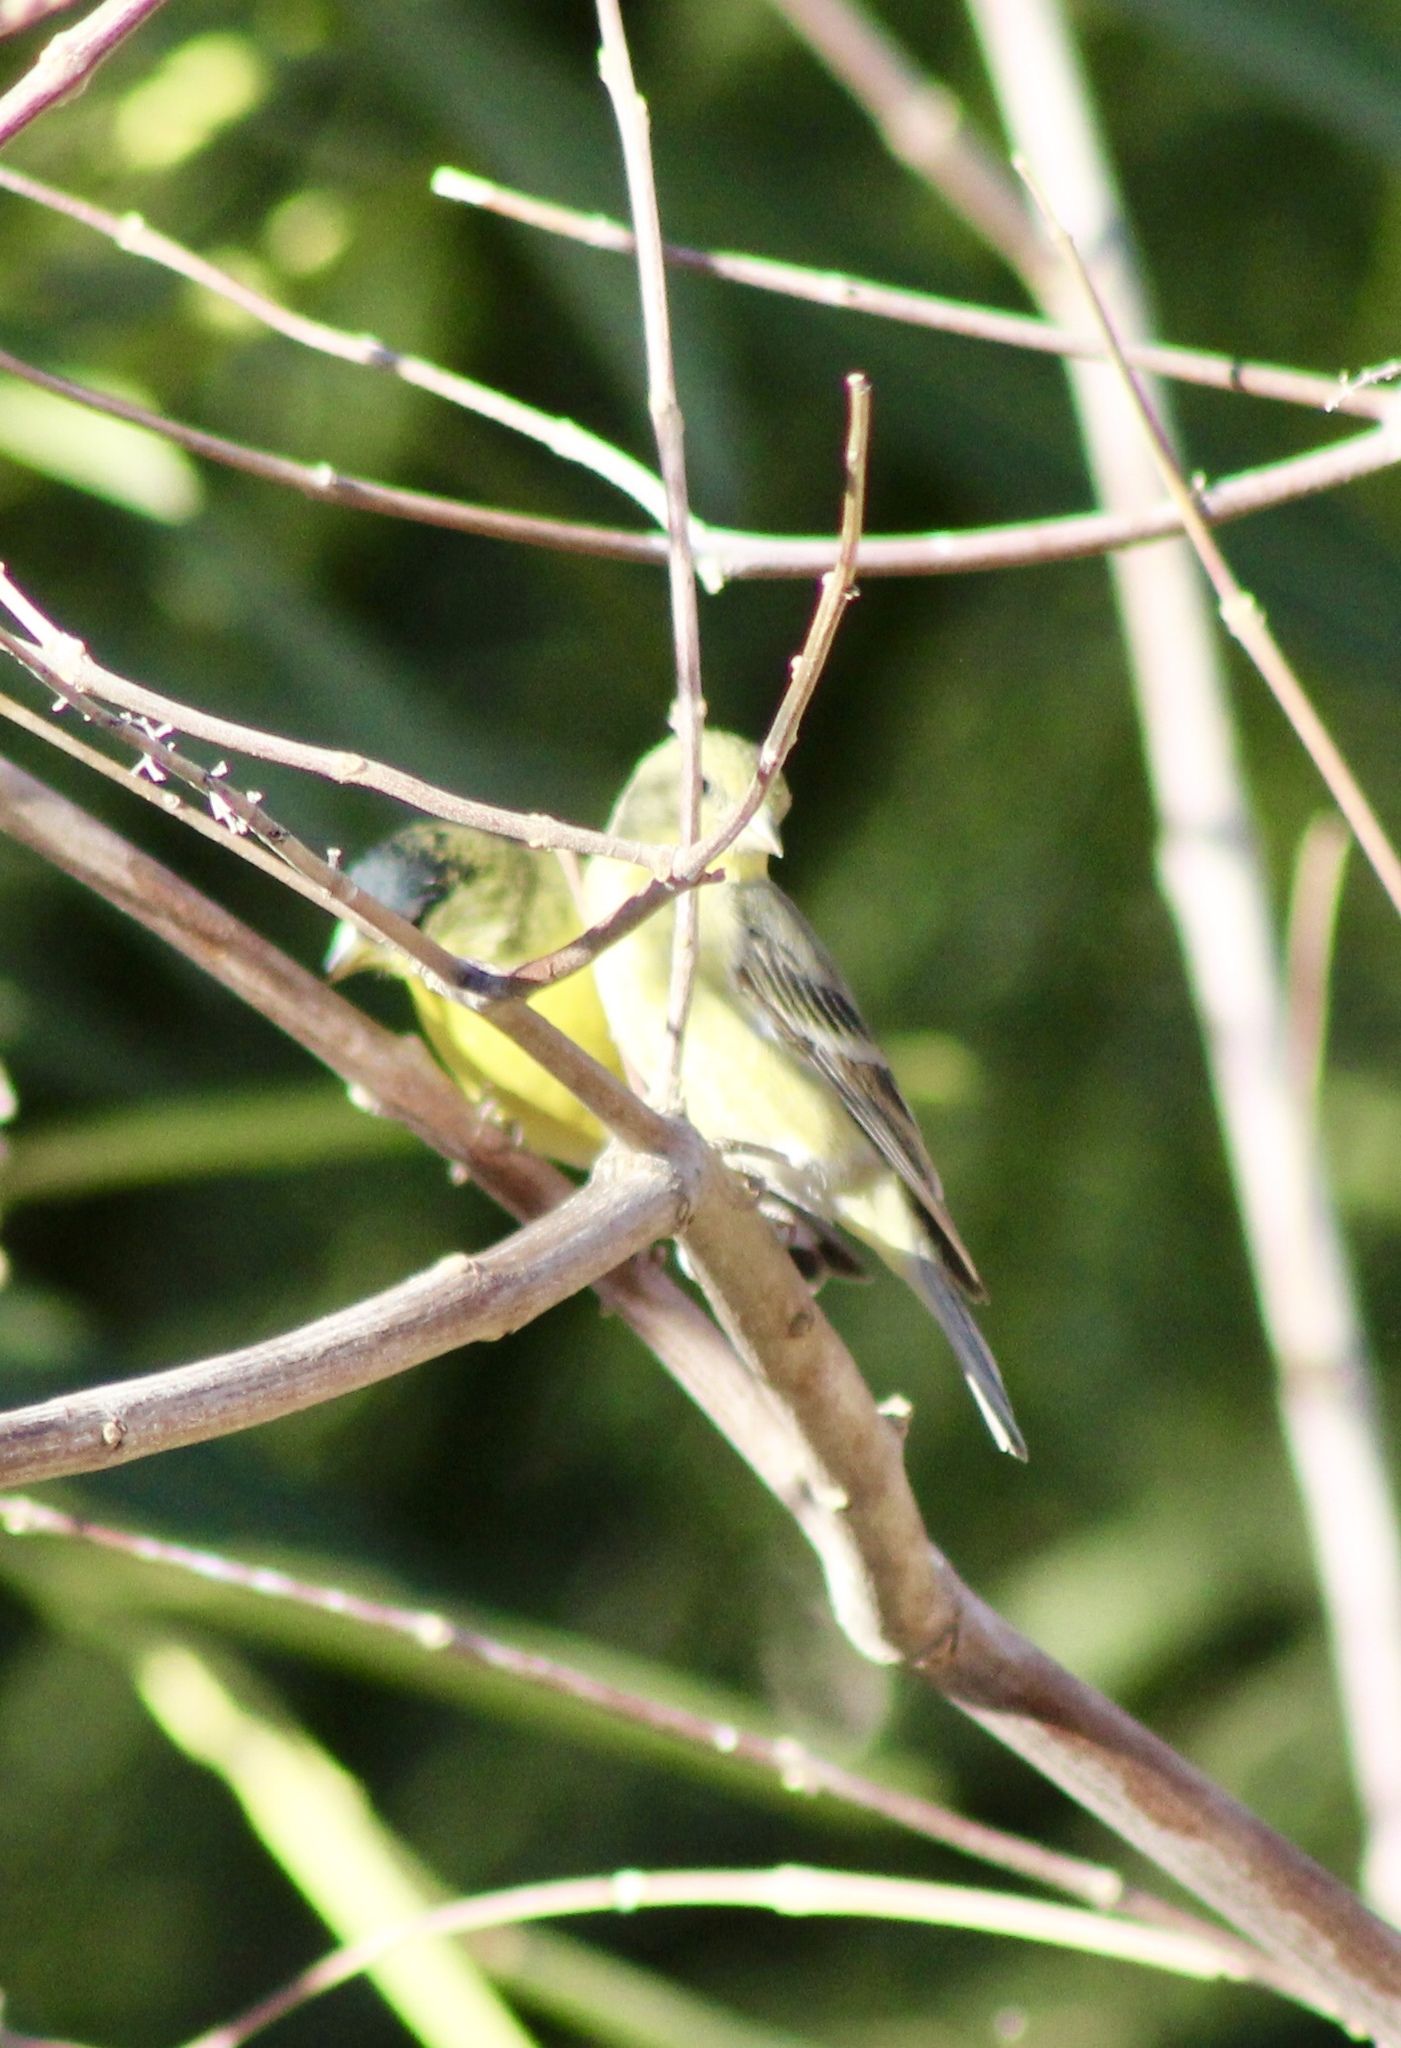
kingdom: Animalia
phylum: Chordata
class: Aves
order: Passeriformes
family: Fringillidae
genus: Spinus
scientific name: Spinus psaltria
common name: Lesser goldfinch
